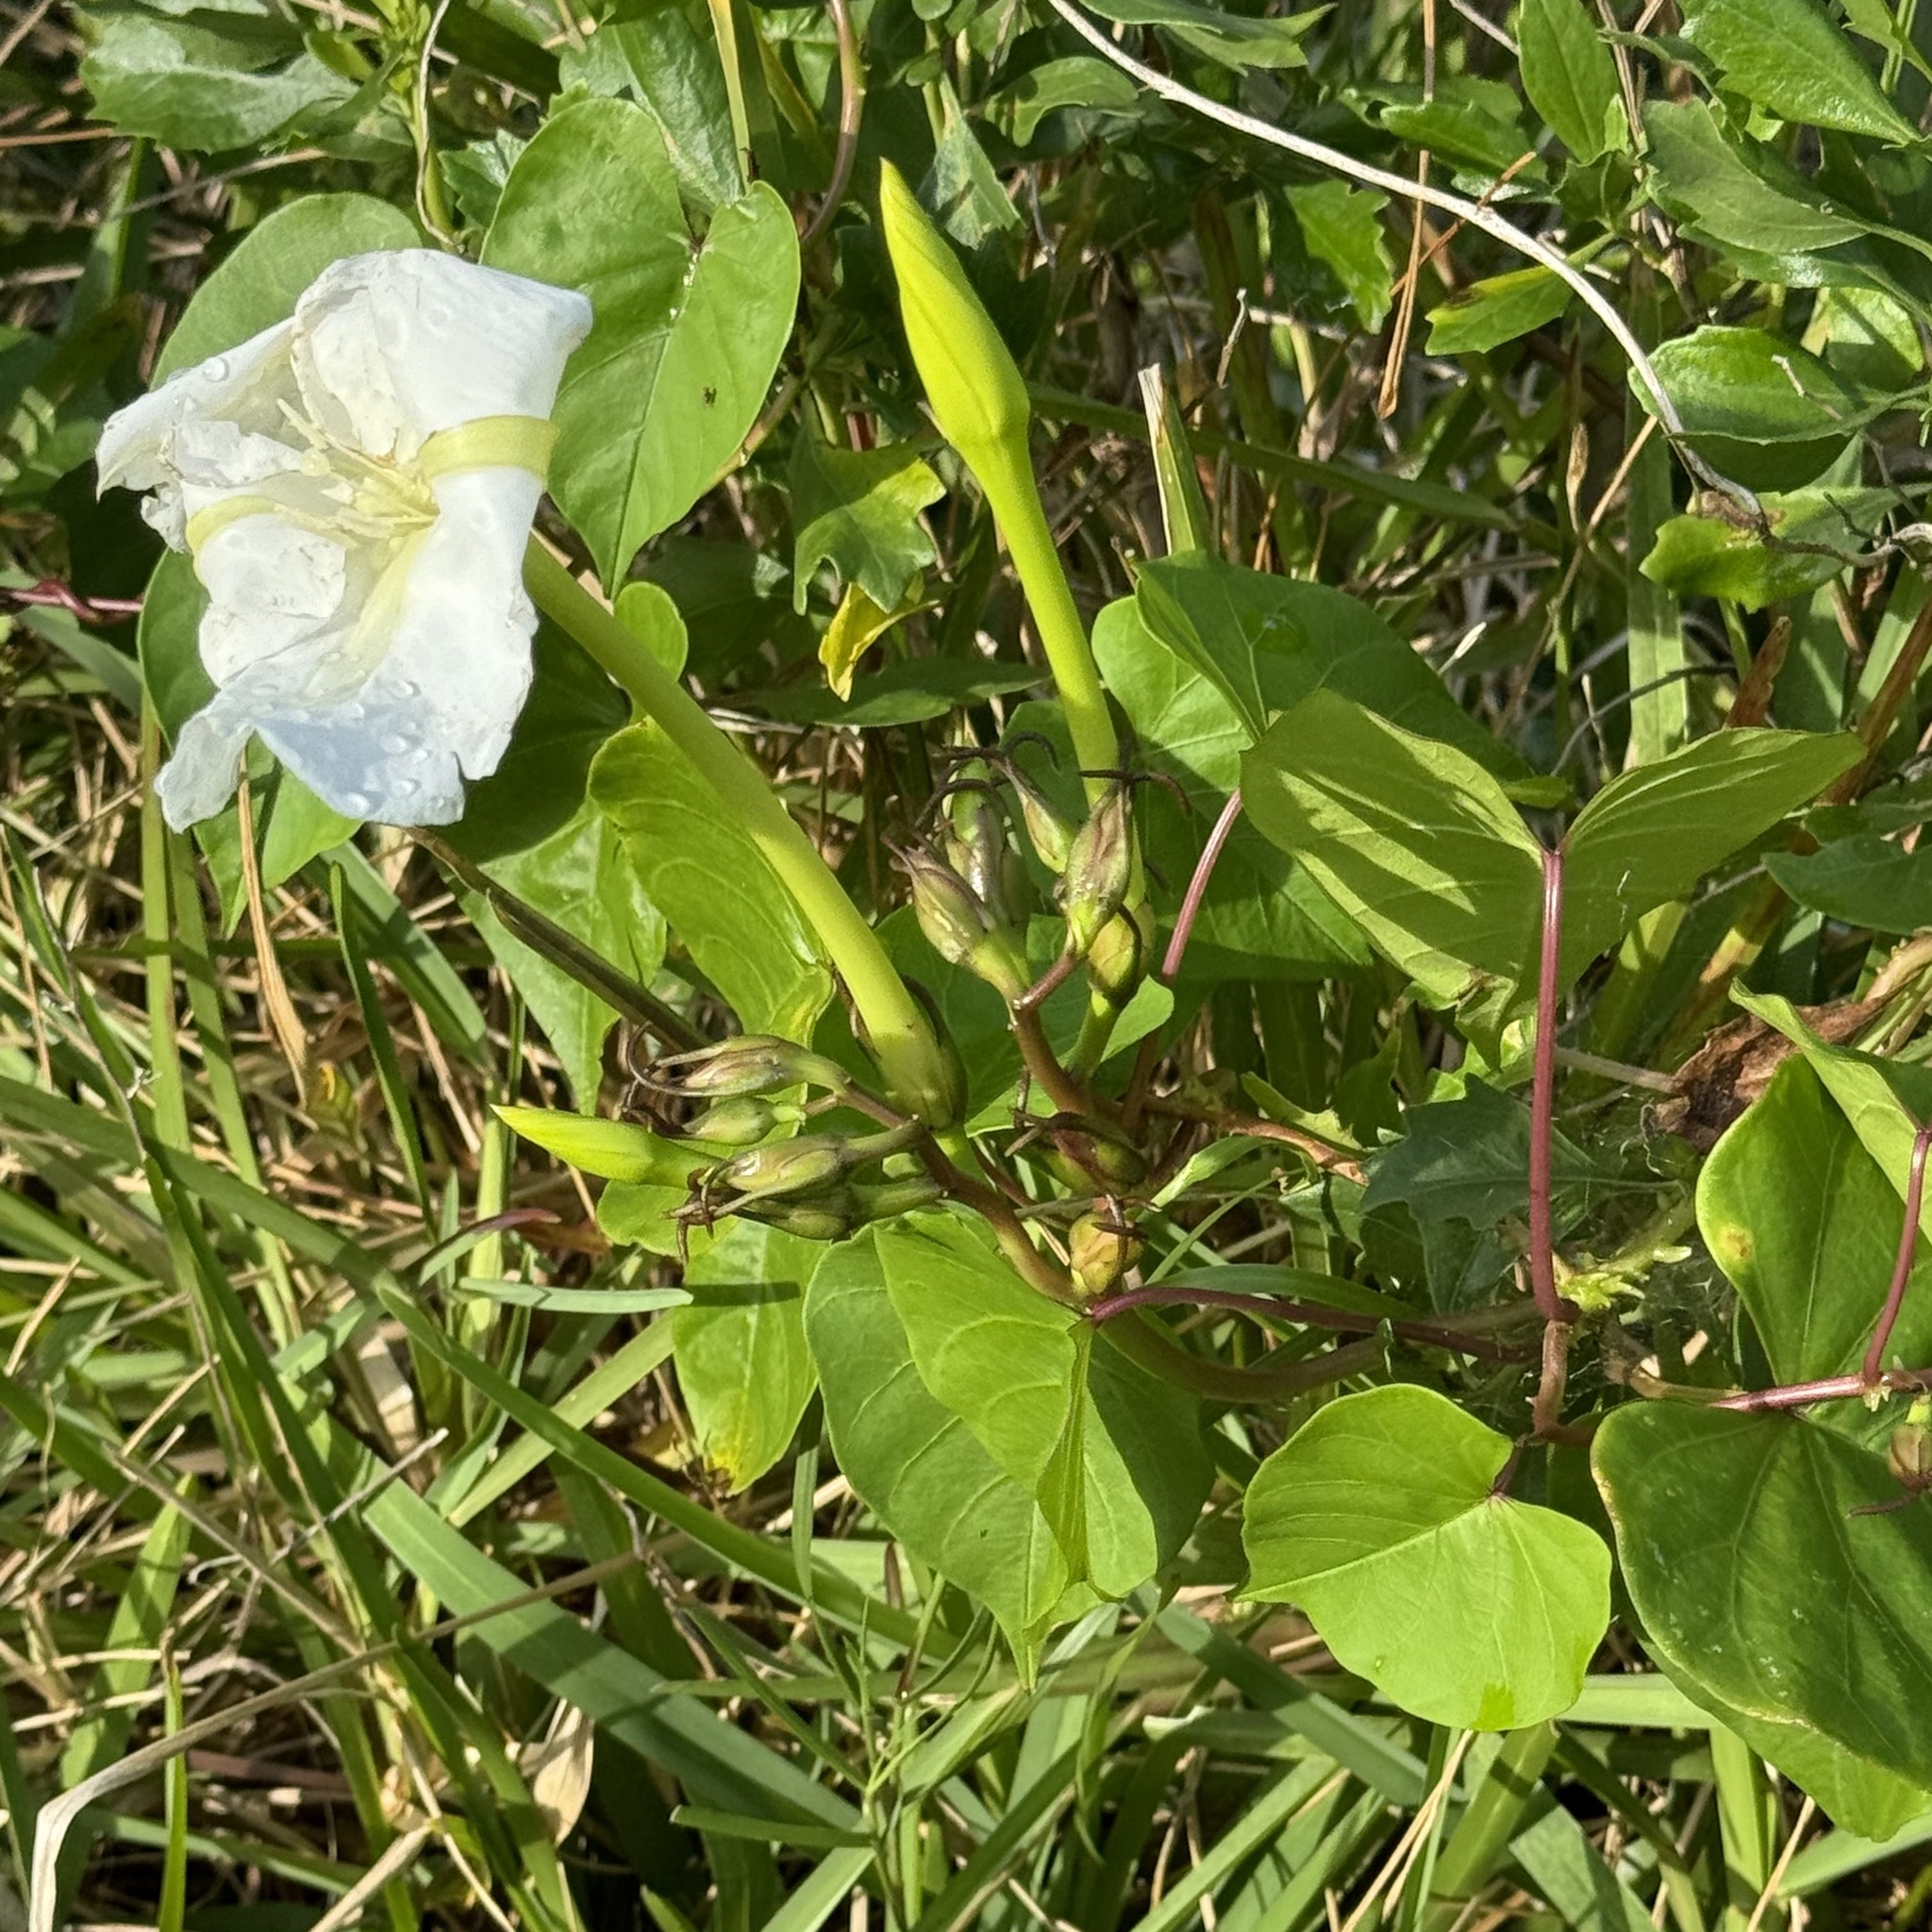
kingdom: Plantae
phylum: Tracheophyta
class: Magnoliopsida
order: Solanales
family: Convolvulaceae
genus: Ipomoea
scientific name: Ipomoea alba
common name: Moonflower
